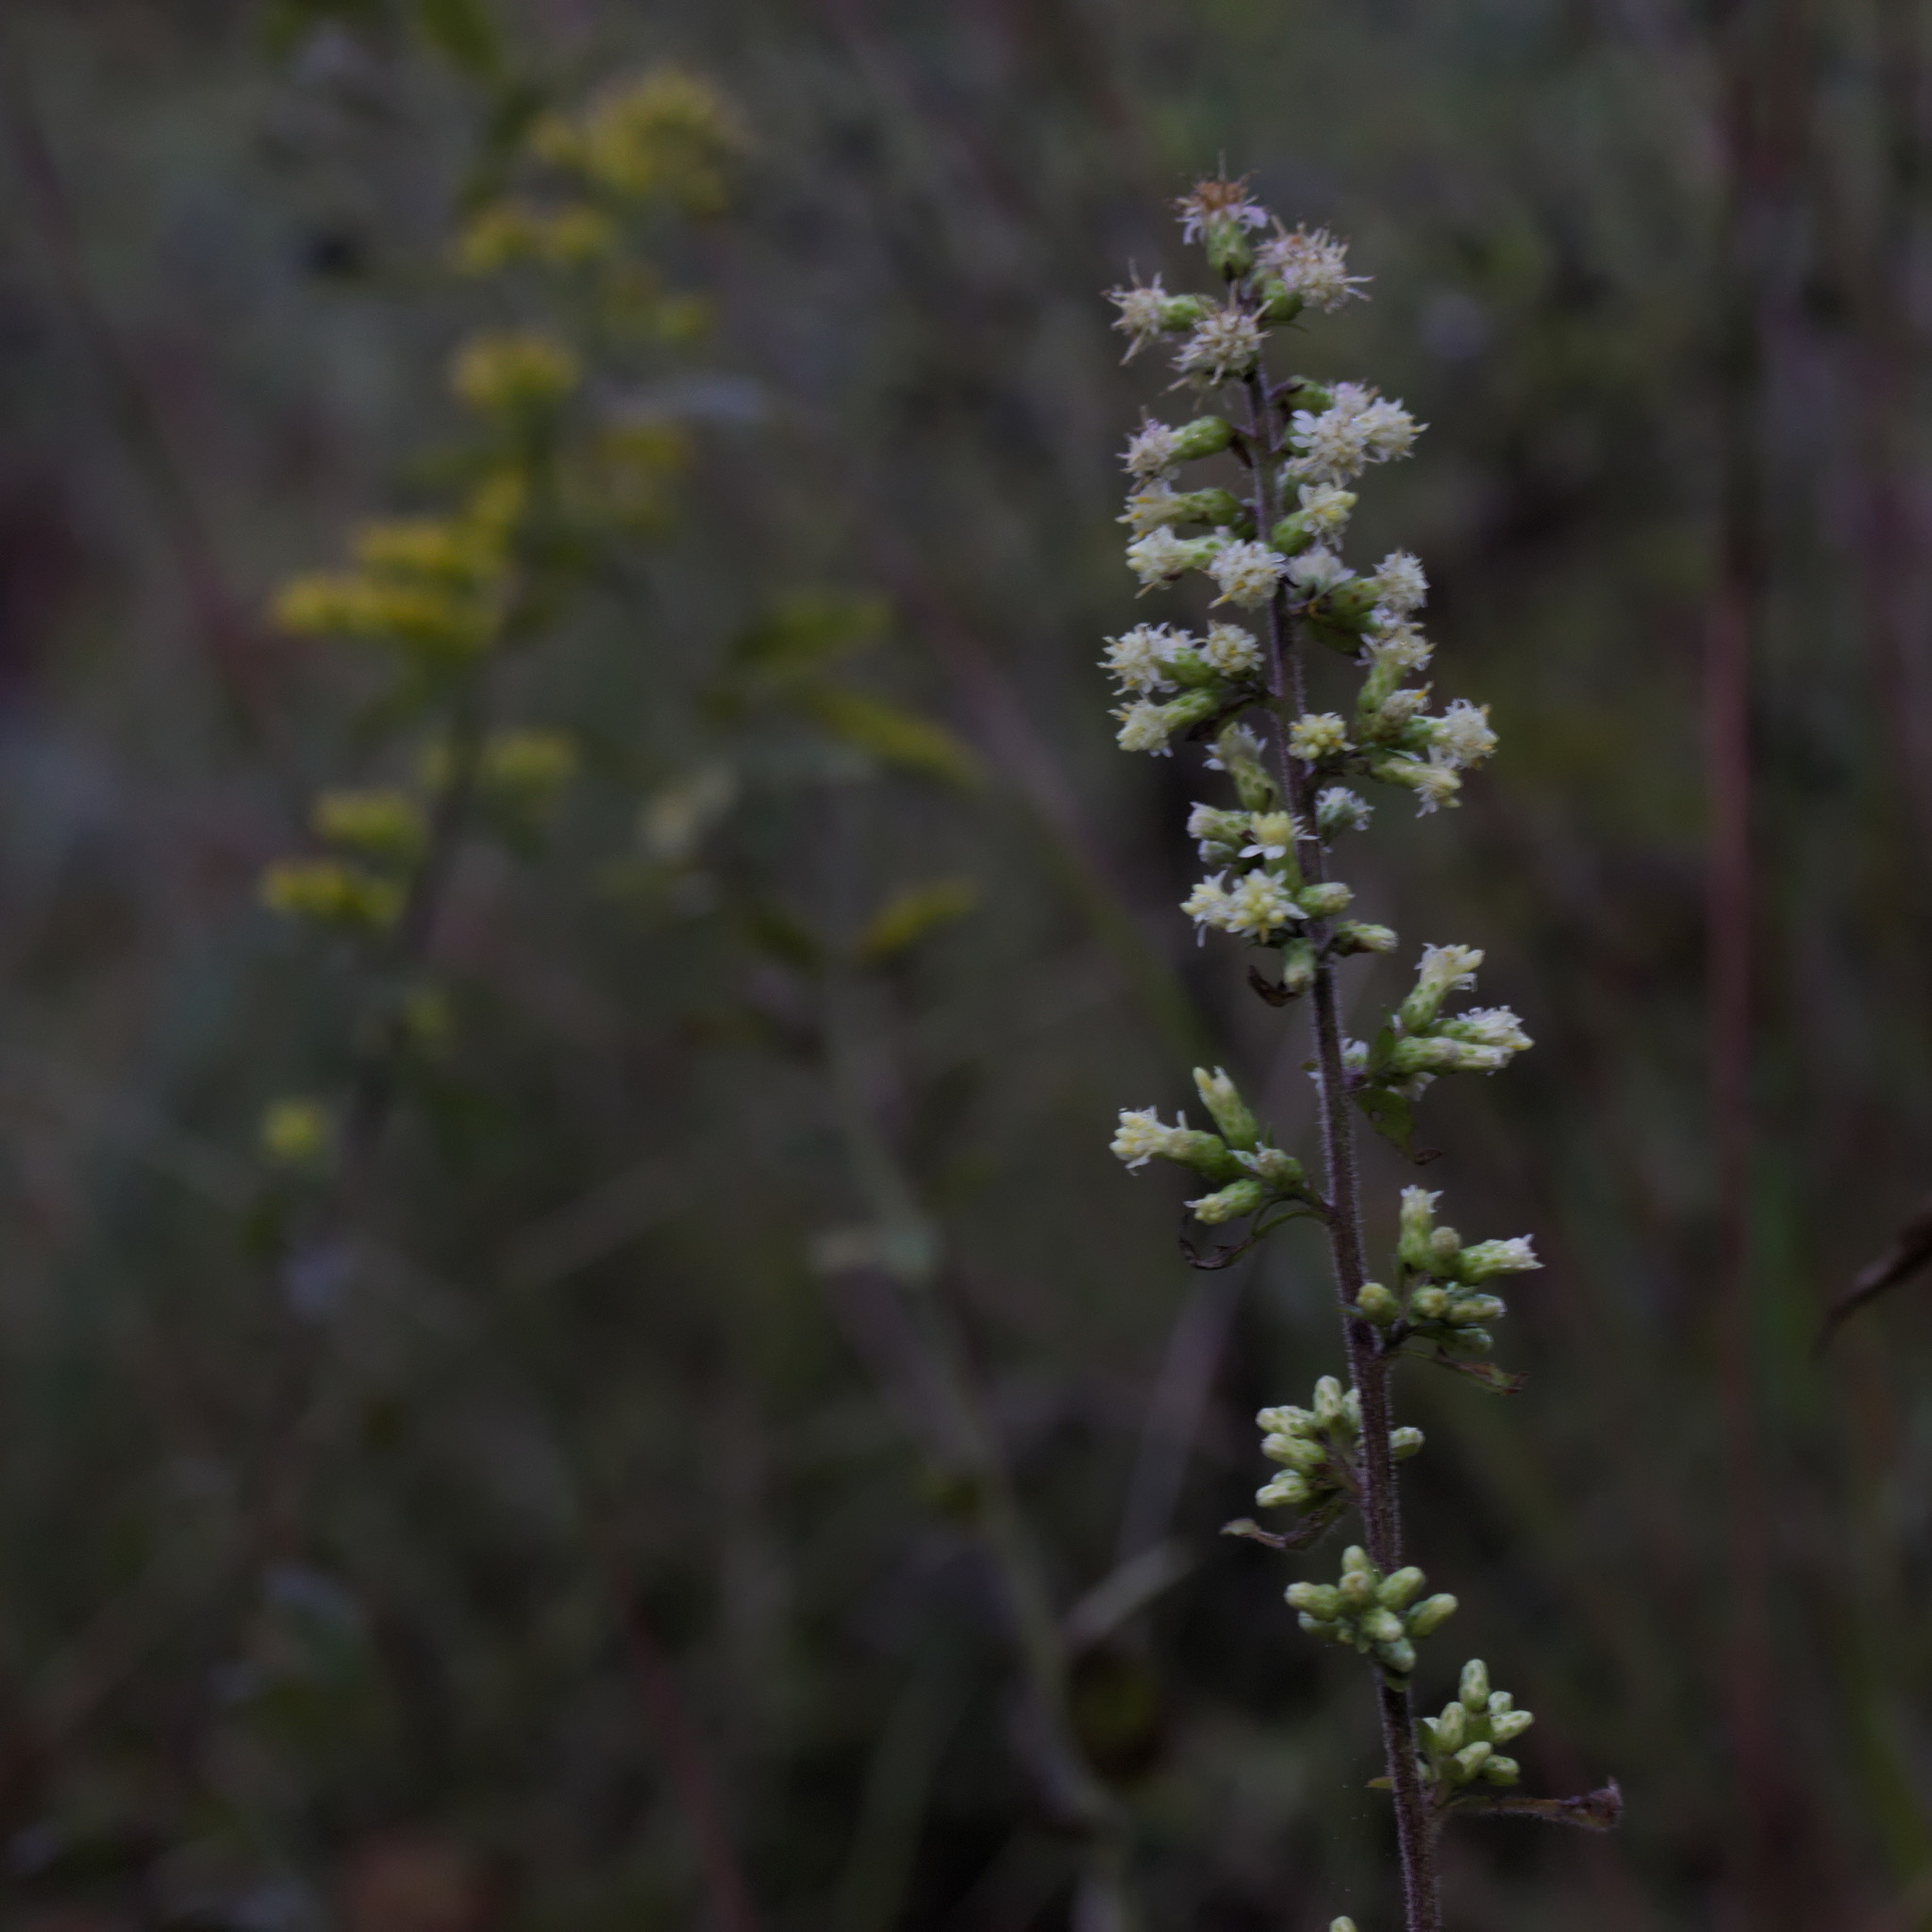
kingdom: Plantae
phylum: Tracheophyta
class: Magnoliopsida
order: Asterales
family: Asteraceae
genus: Solidago
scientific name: Solidago bicolor
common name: Silverrod
